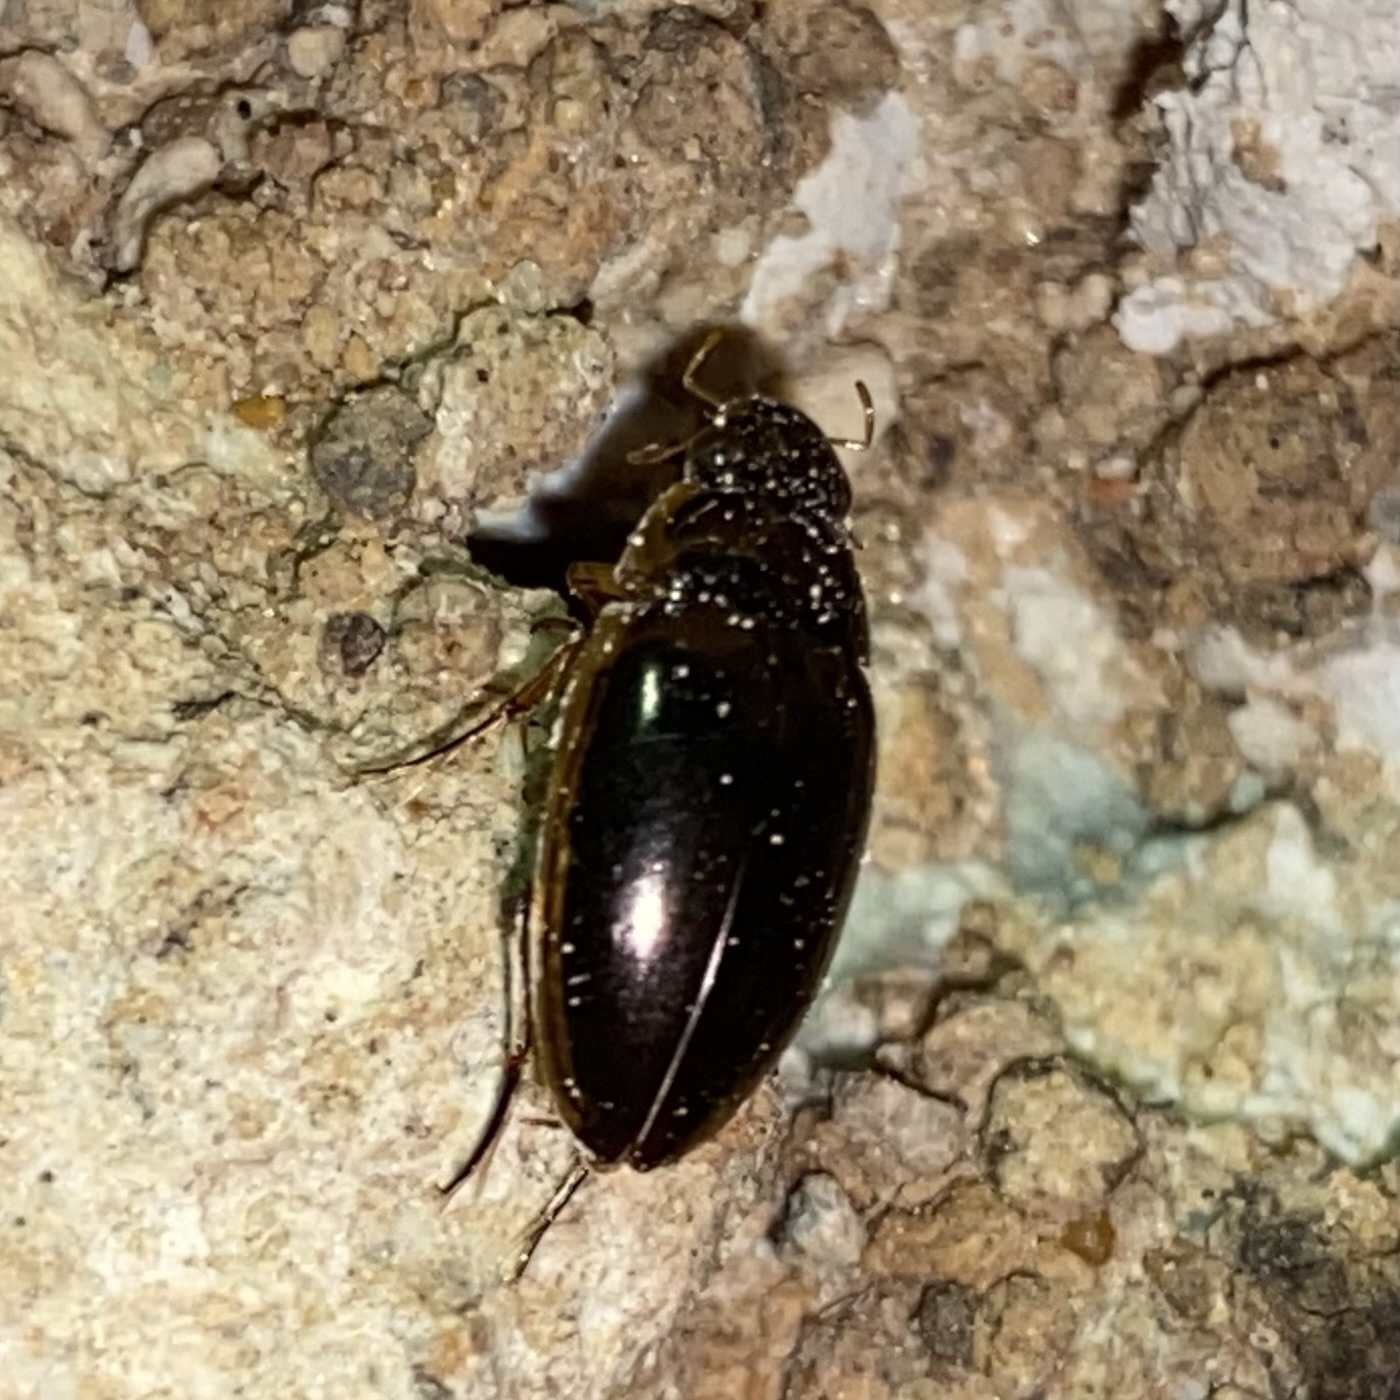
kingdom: Animalia
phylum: Arthropoda
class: Insecta
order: Coleoptera
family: Hydrophilidae
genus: Tropisternus
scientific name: Tropisternus lateralis
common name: Lateral-banded water scavenger beetle
